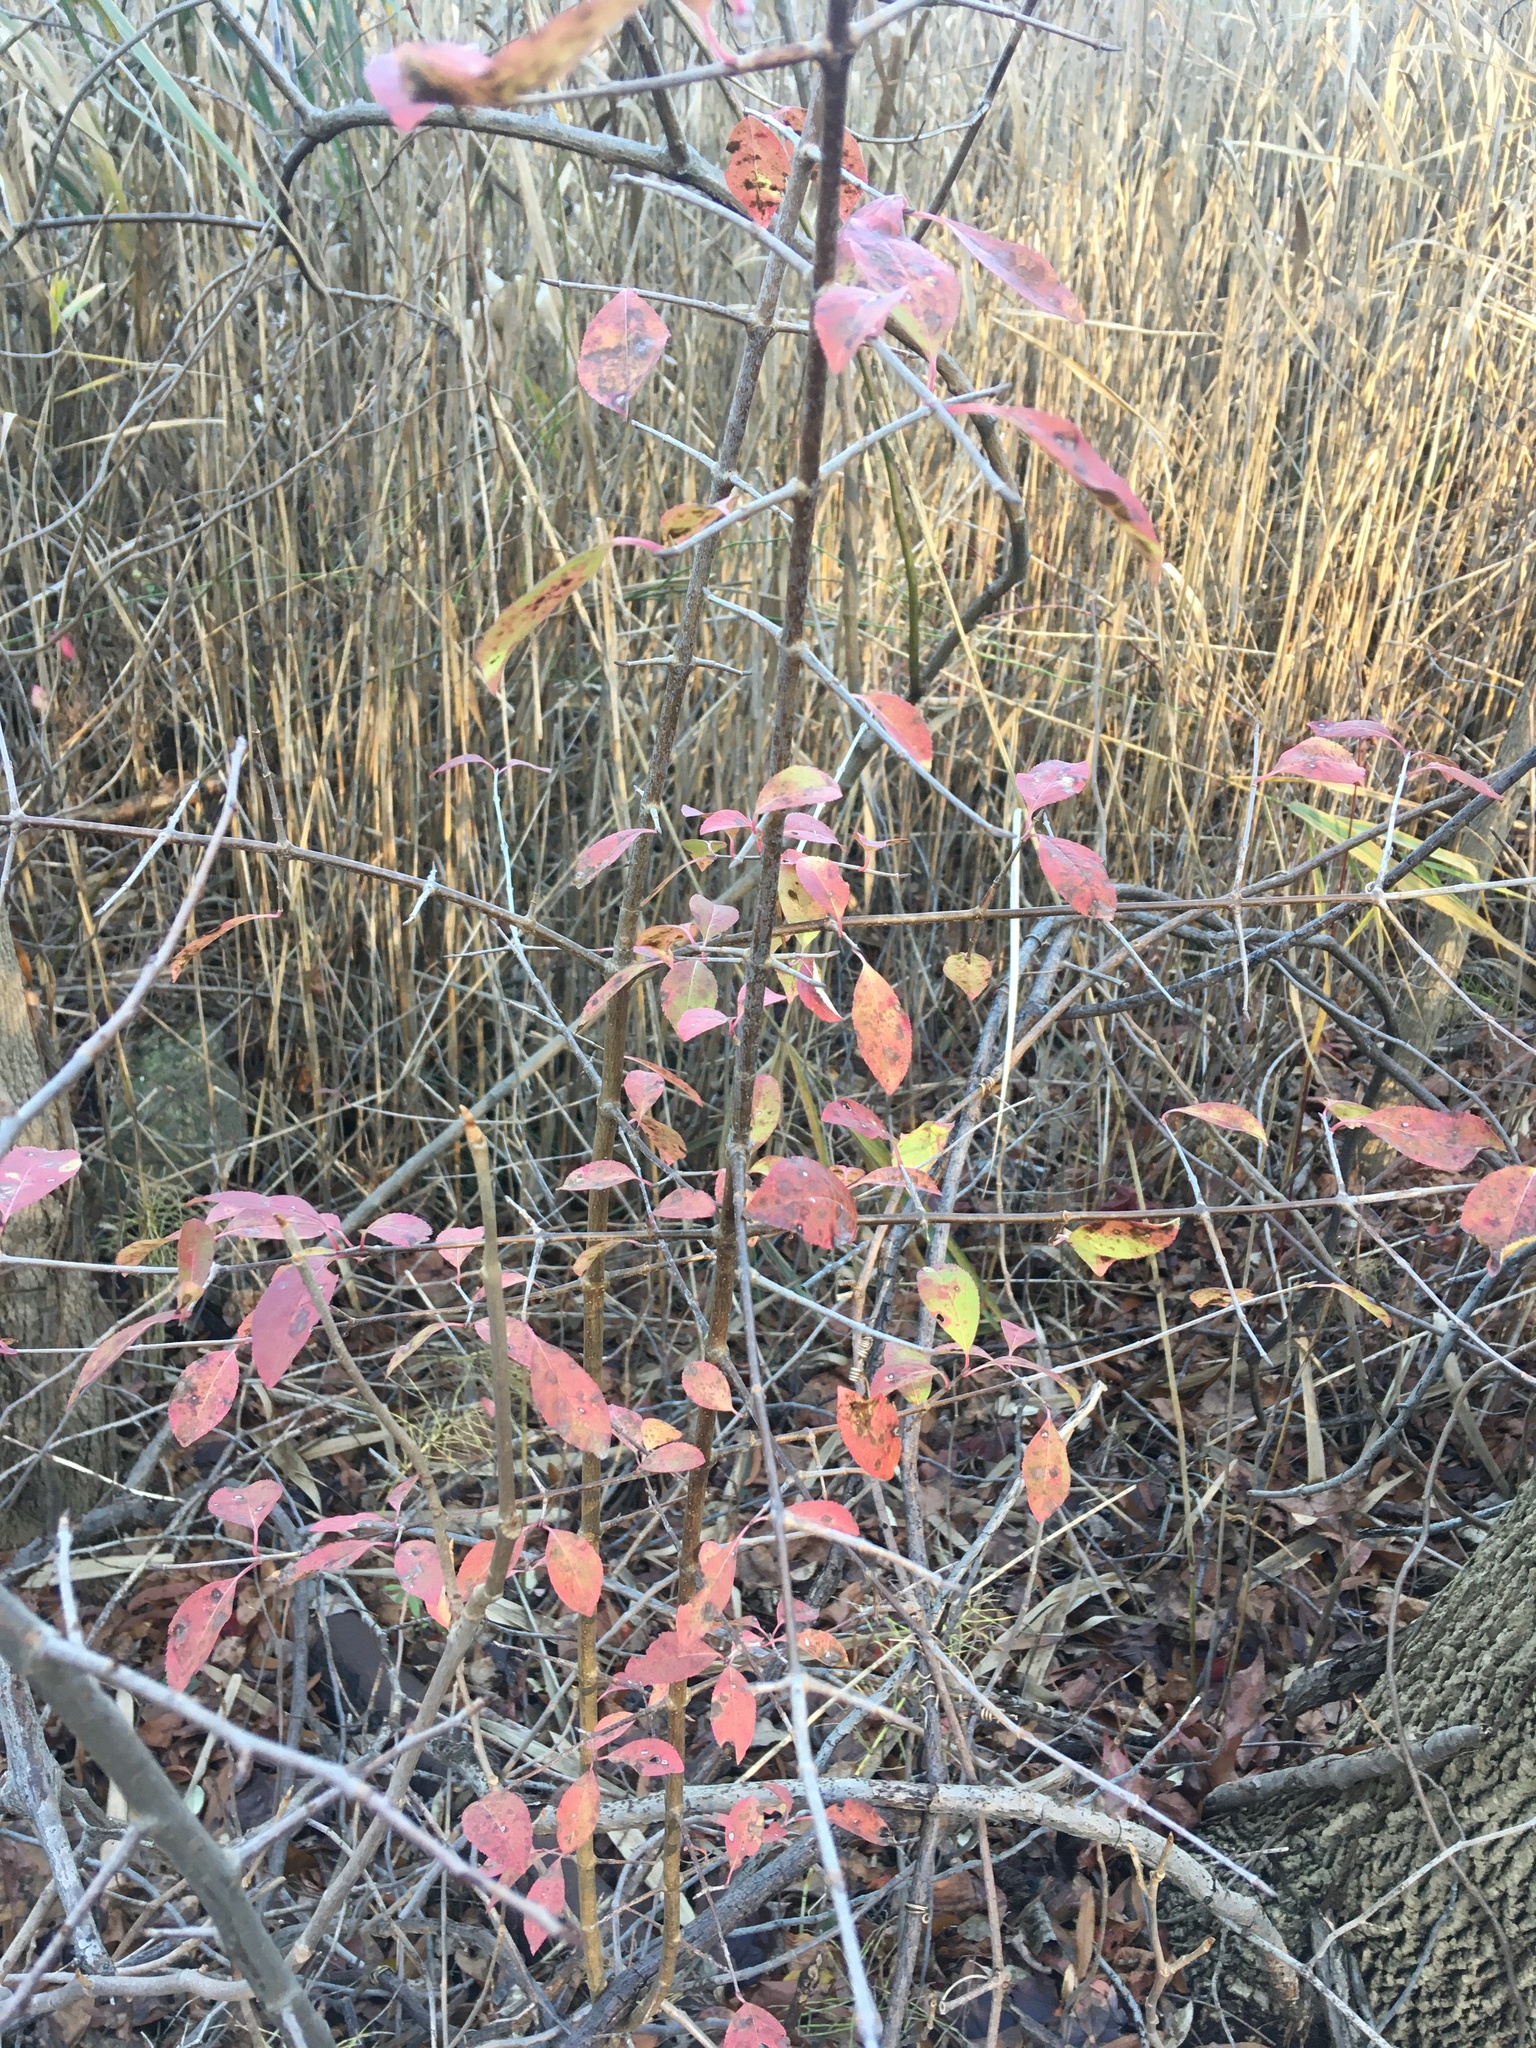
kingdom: Plantae
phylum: Tracheophyta
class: Magnoliopsida
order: Dipsacales
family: Viburnaceae
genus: Viburnum
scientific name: Viburnum prunifolium
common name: Black haw
